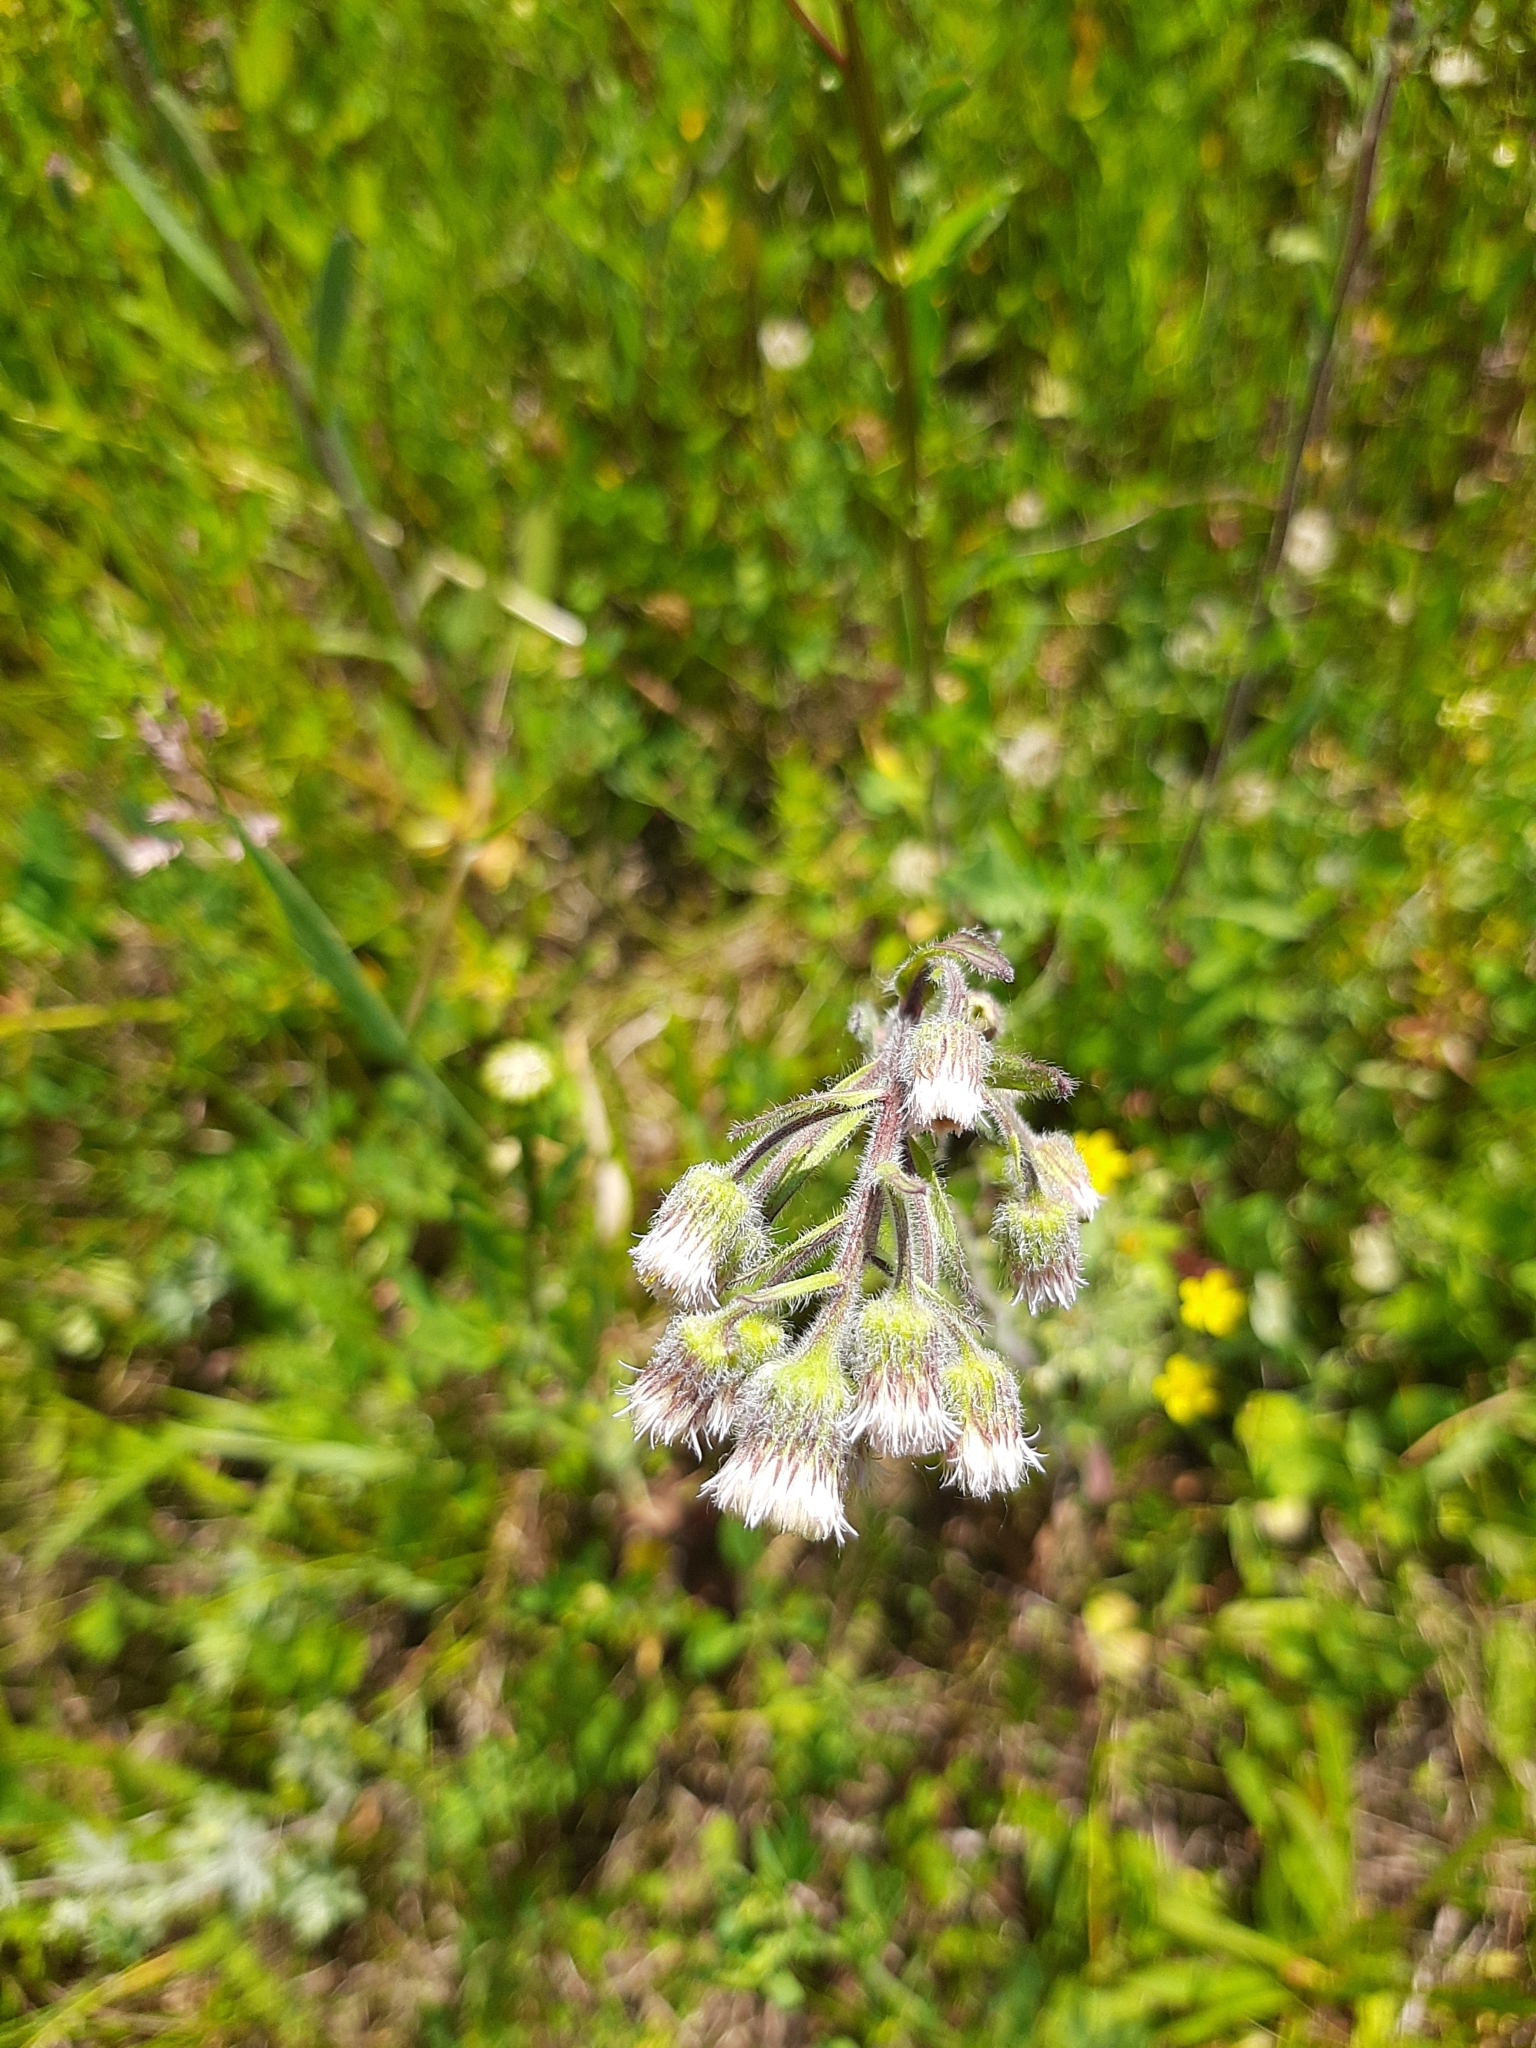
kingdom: Plantae
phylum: Tracheophyta
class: Magnoliopsida
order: Asterales
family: Asteraceae
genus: Erigeron
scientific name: Erigeron acris
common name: Blue fleabane
